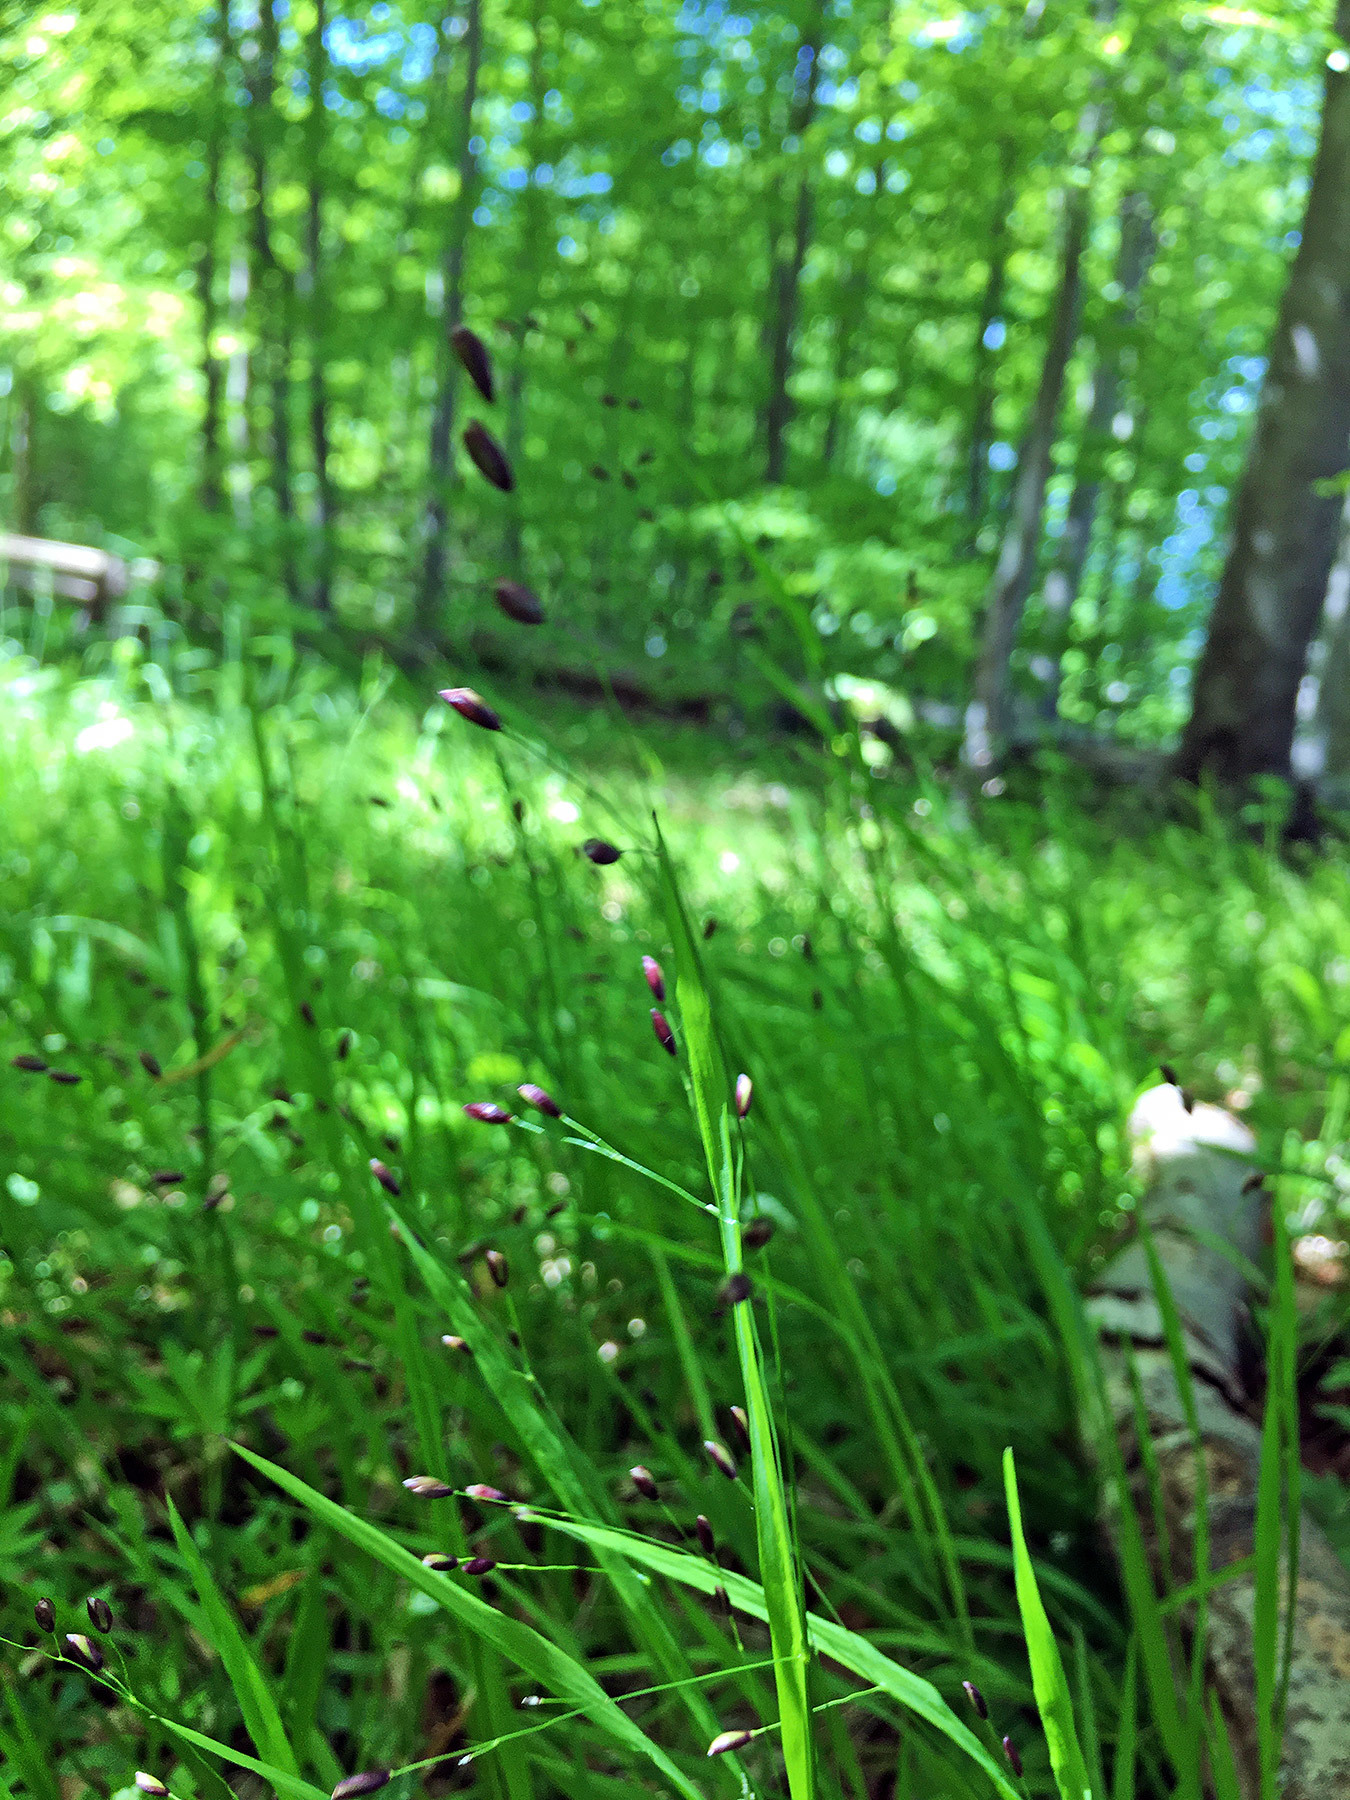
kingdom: Plantae
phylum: Tracheophyta
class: Liliopsida
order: Poales
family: Poaceae
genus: Melica
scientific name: Melica uniflora
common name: Wood melick
